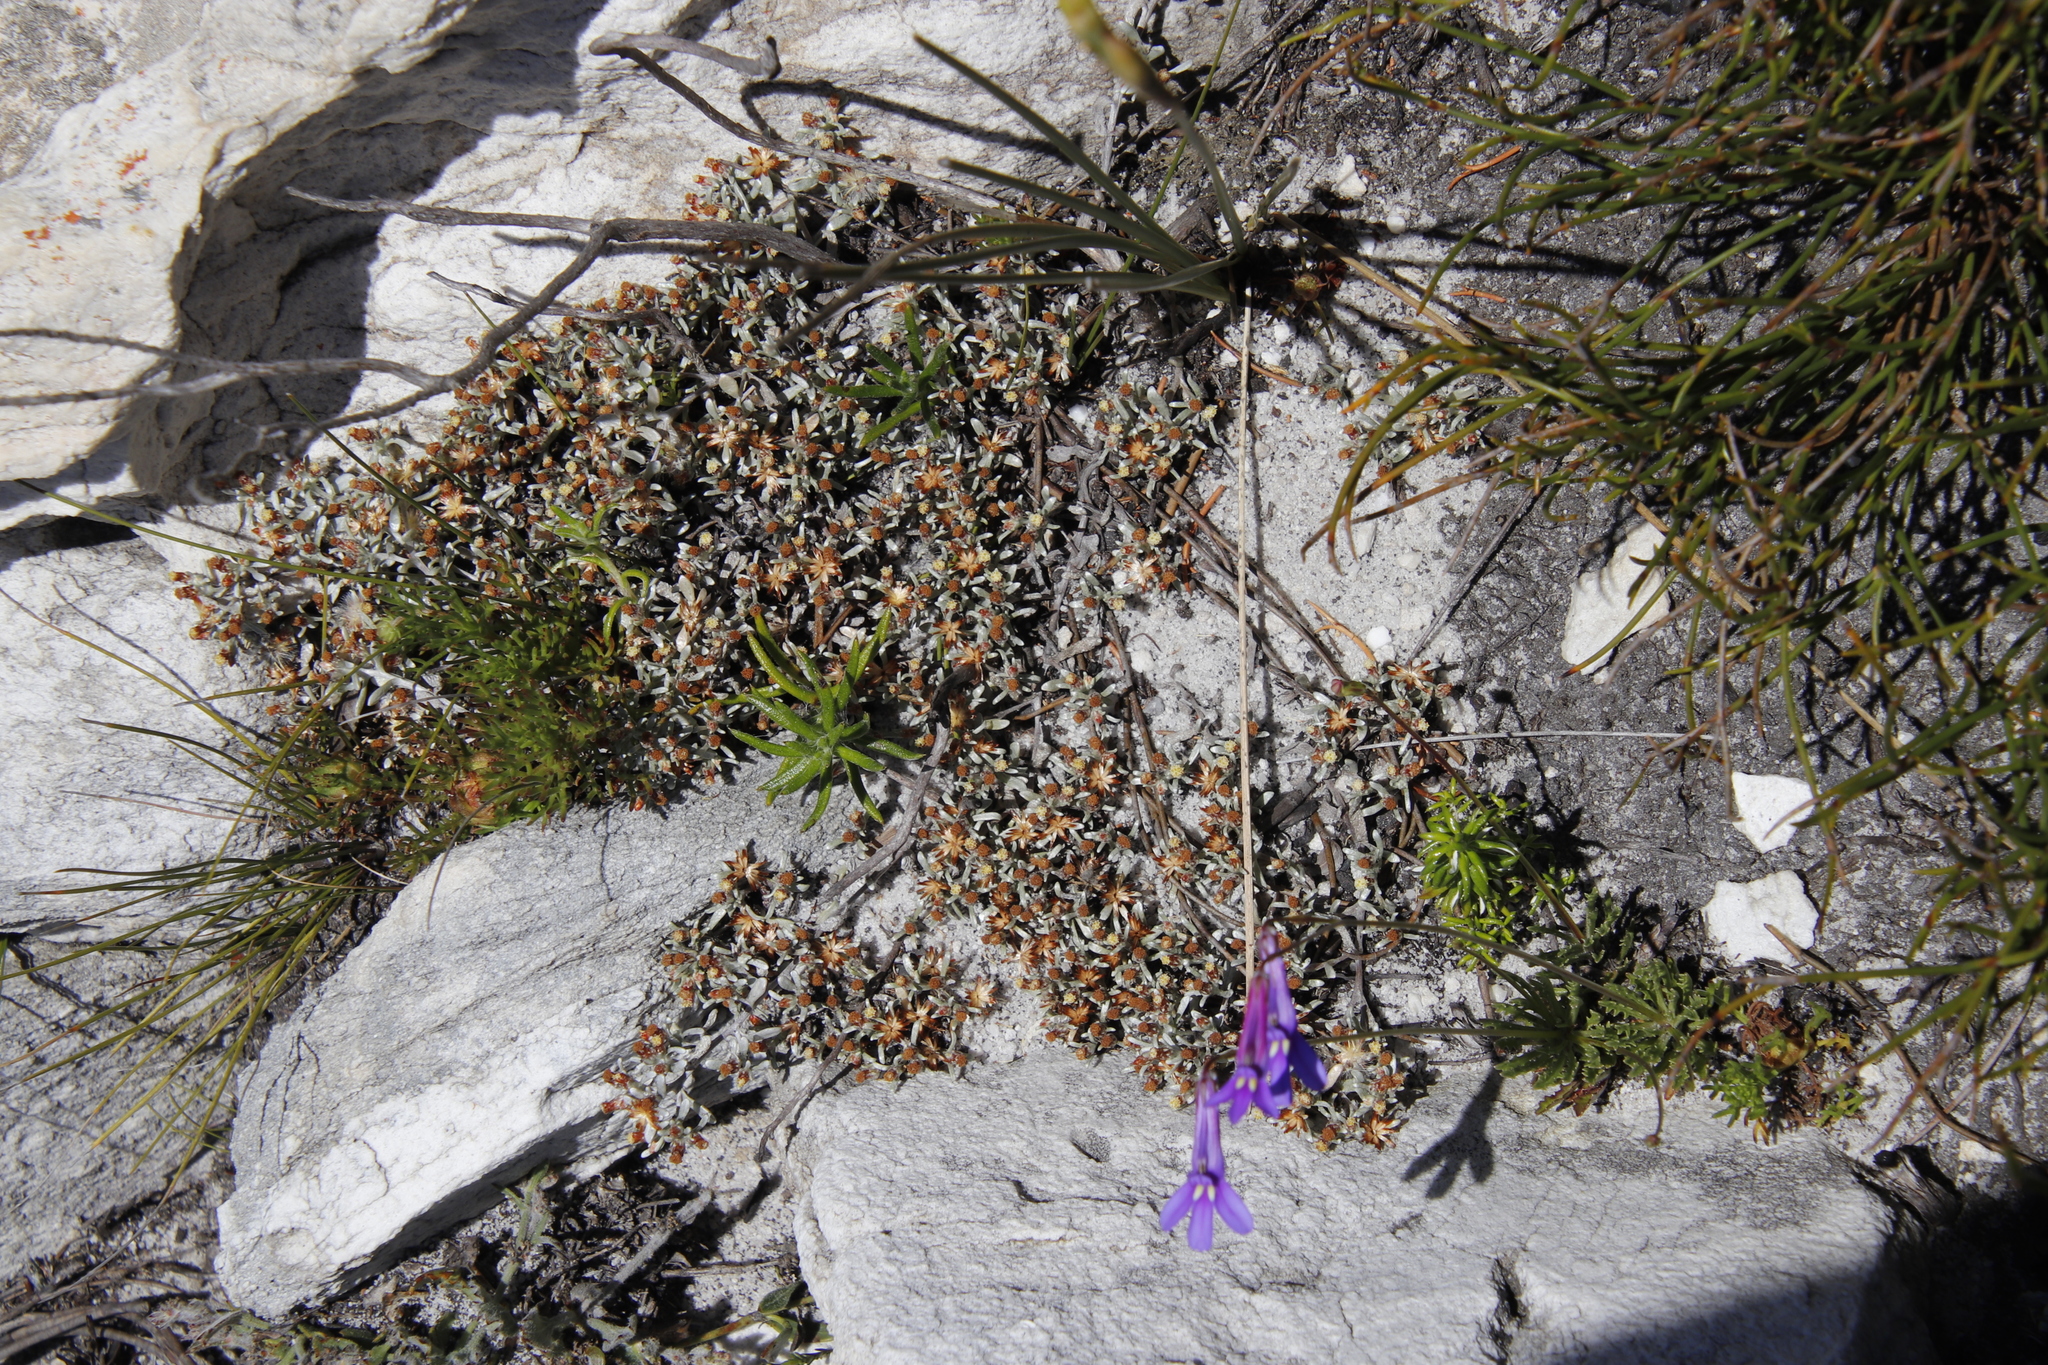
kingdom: Plantae
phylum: Tracheophyta
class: Magnoliopsida
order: Asterales
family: Campanulaceae
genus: Lobelia
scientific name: Lobelia coronopifolia
